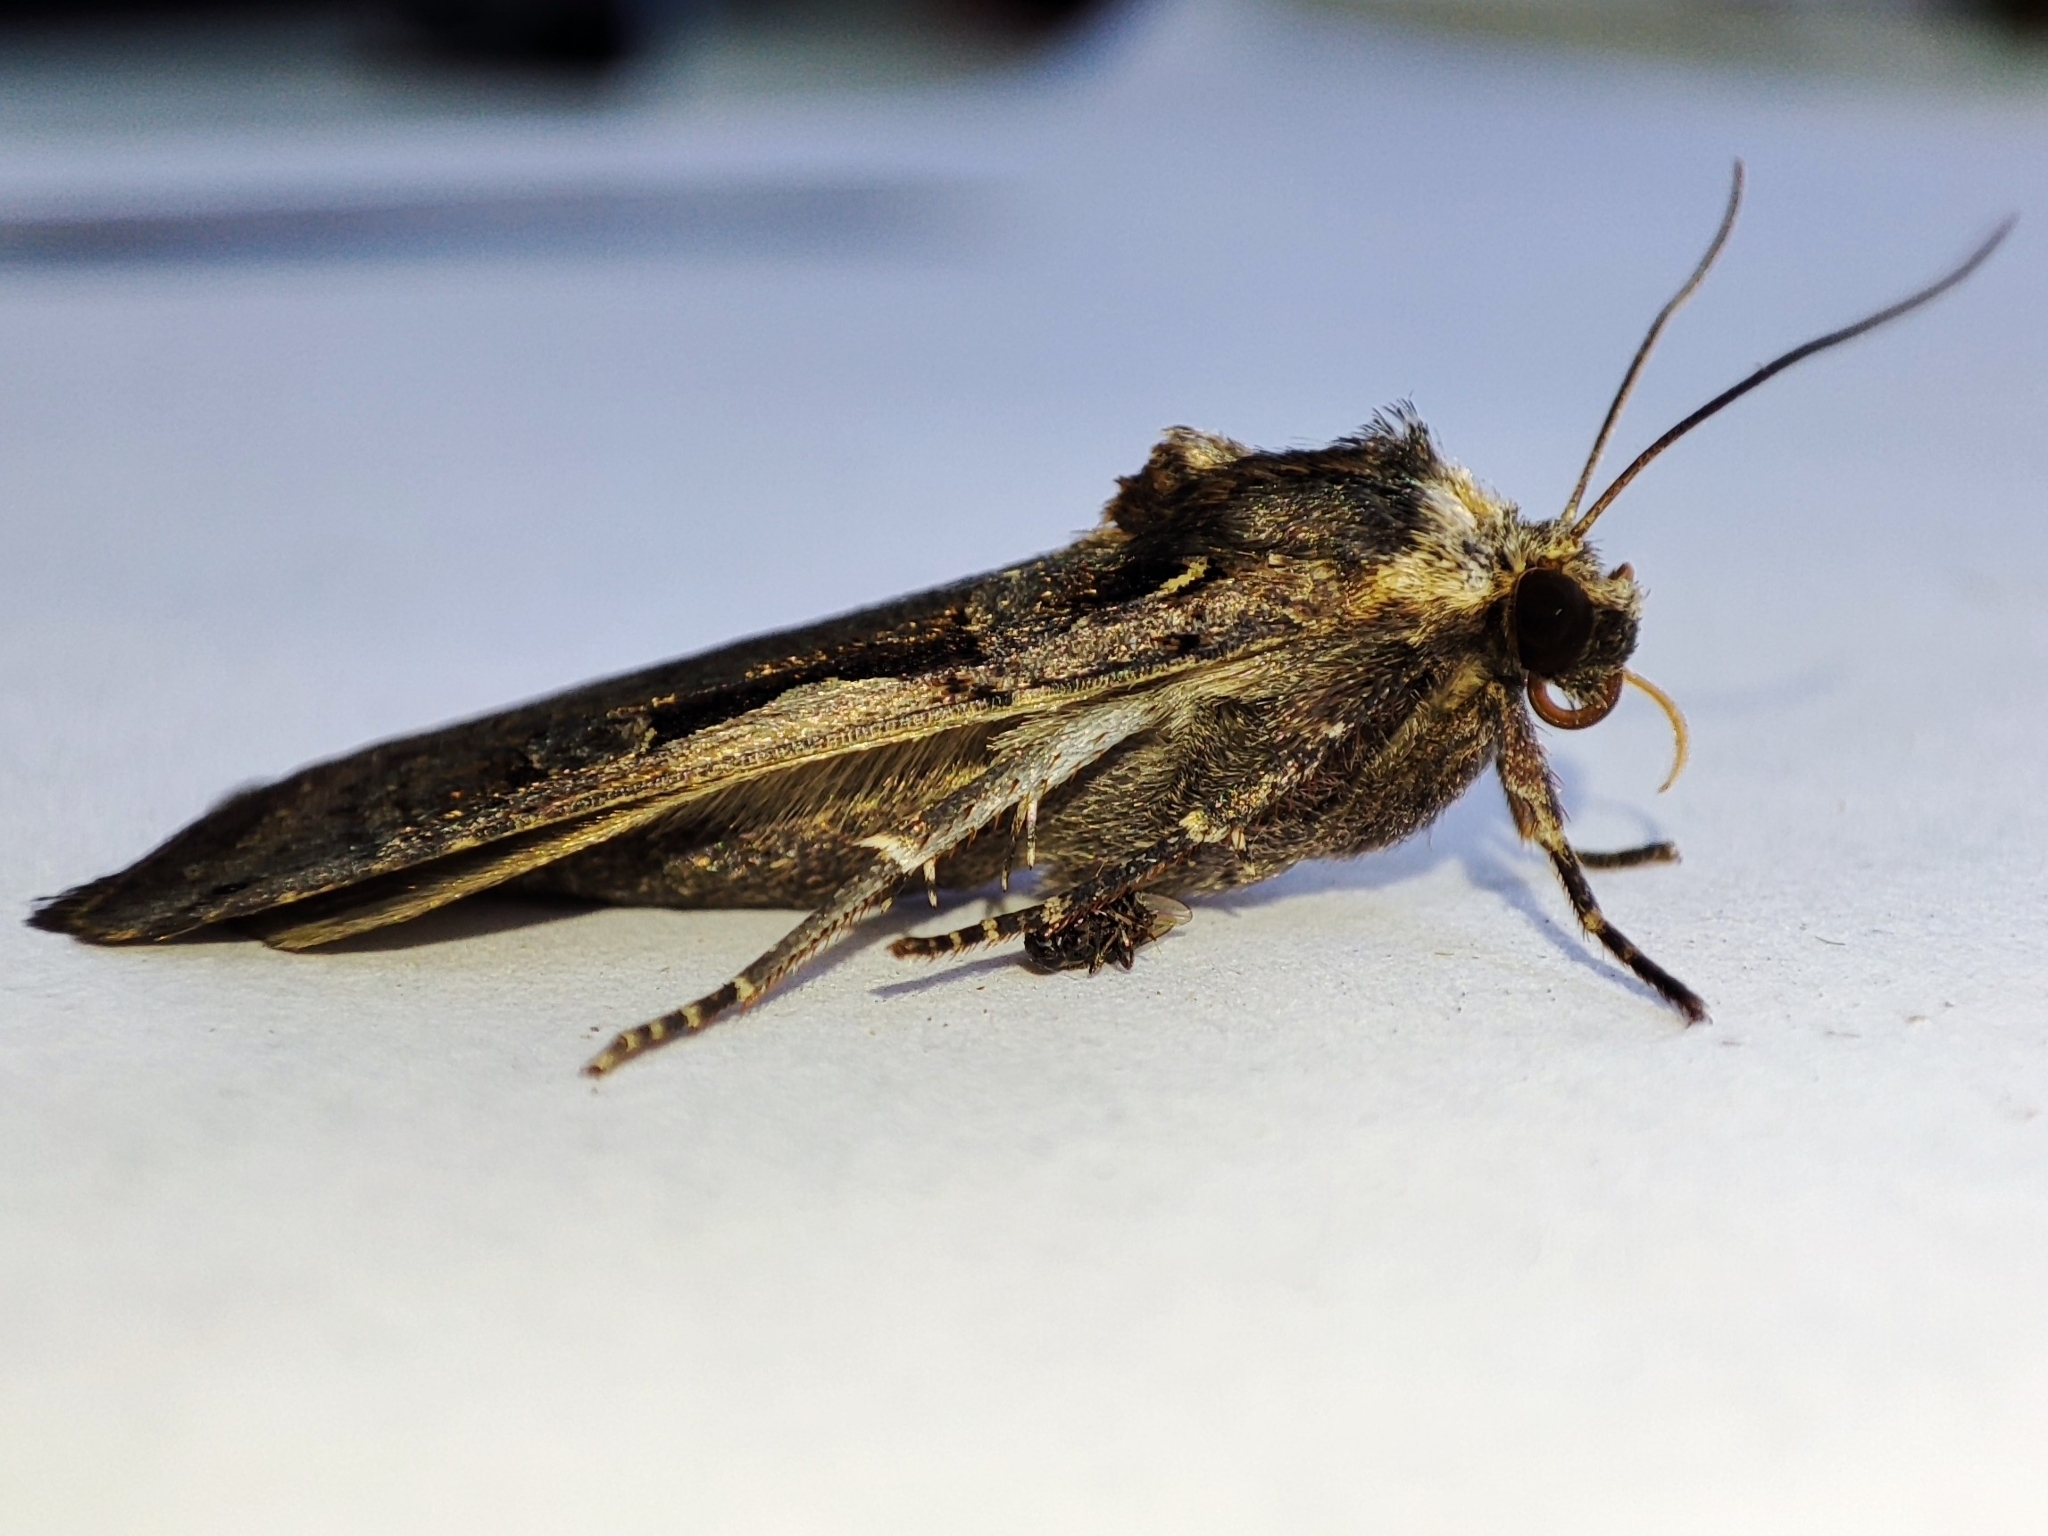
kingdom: Animalia
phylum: Arthropoda
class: Insecta
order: Lepidoptera
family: Noctuidae
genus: Xestia
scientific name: Xestia c-nigrum
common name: Setaceous hebrew character
